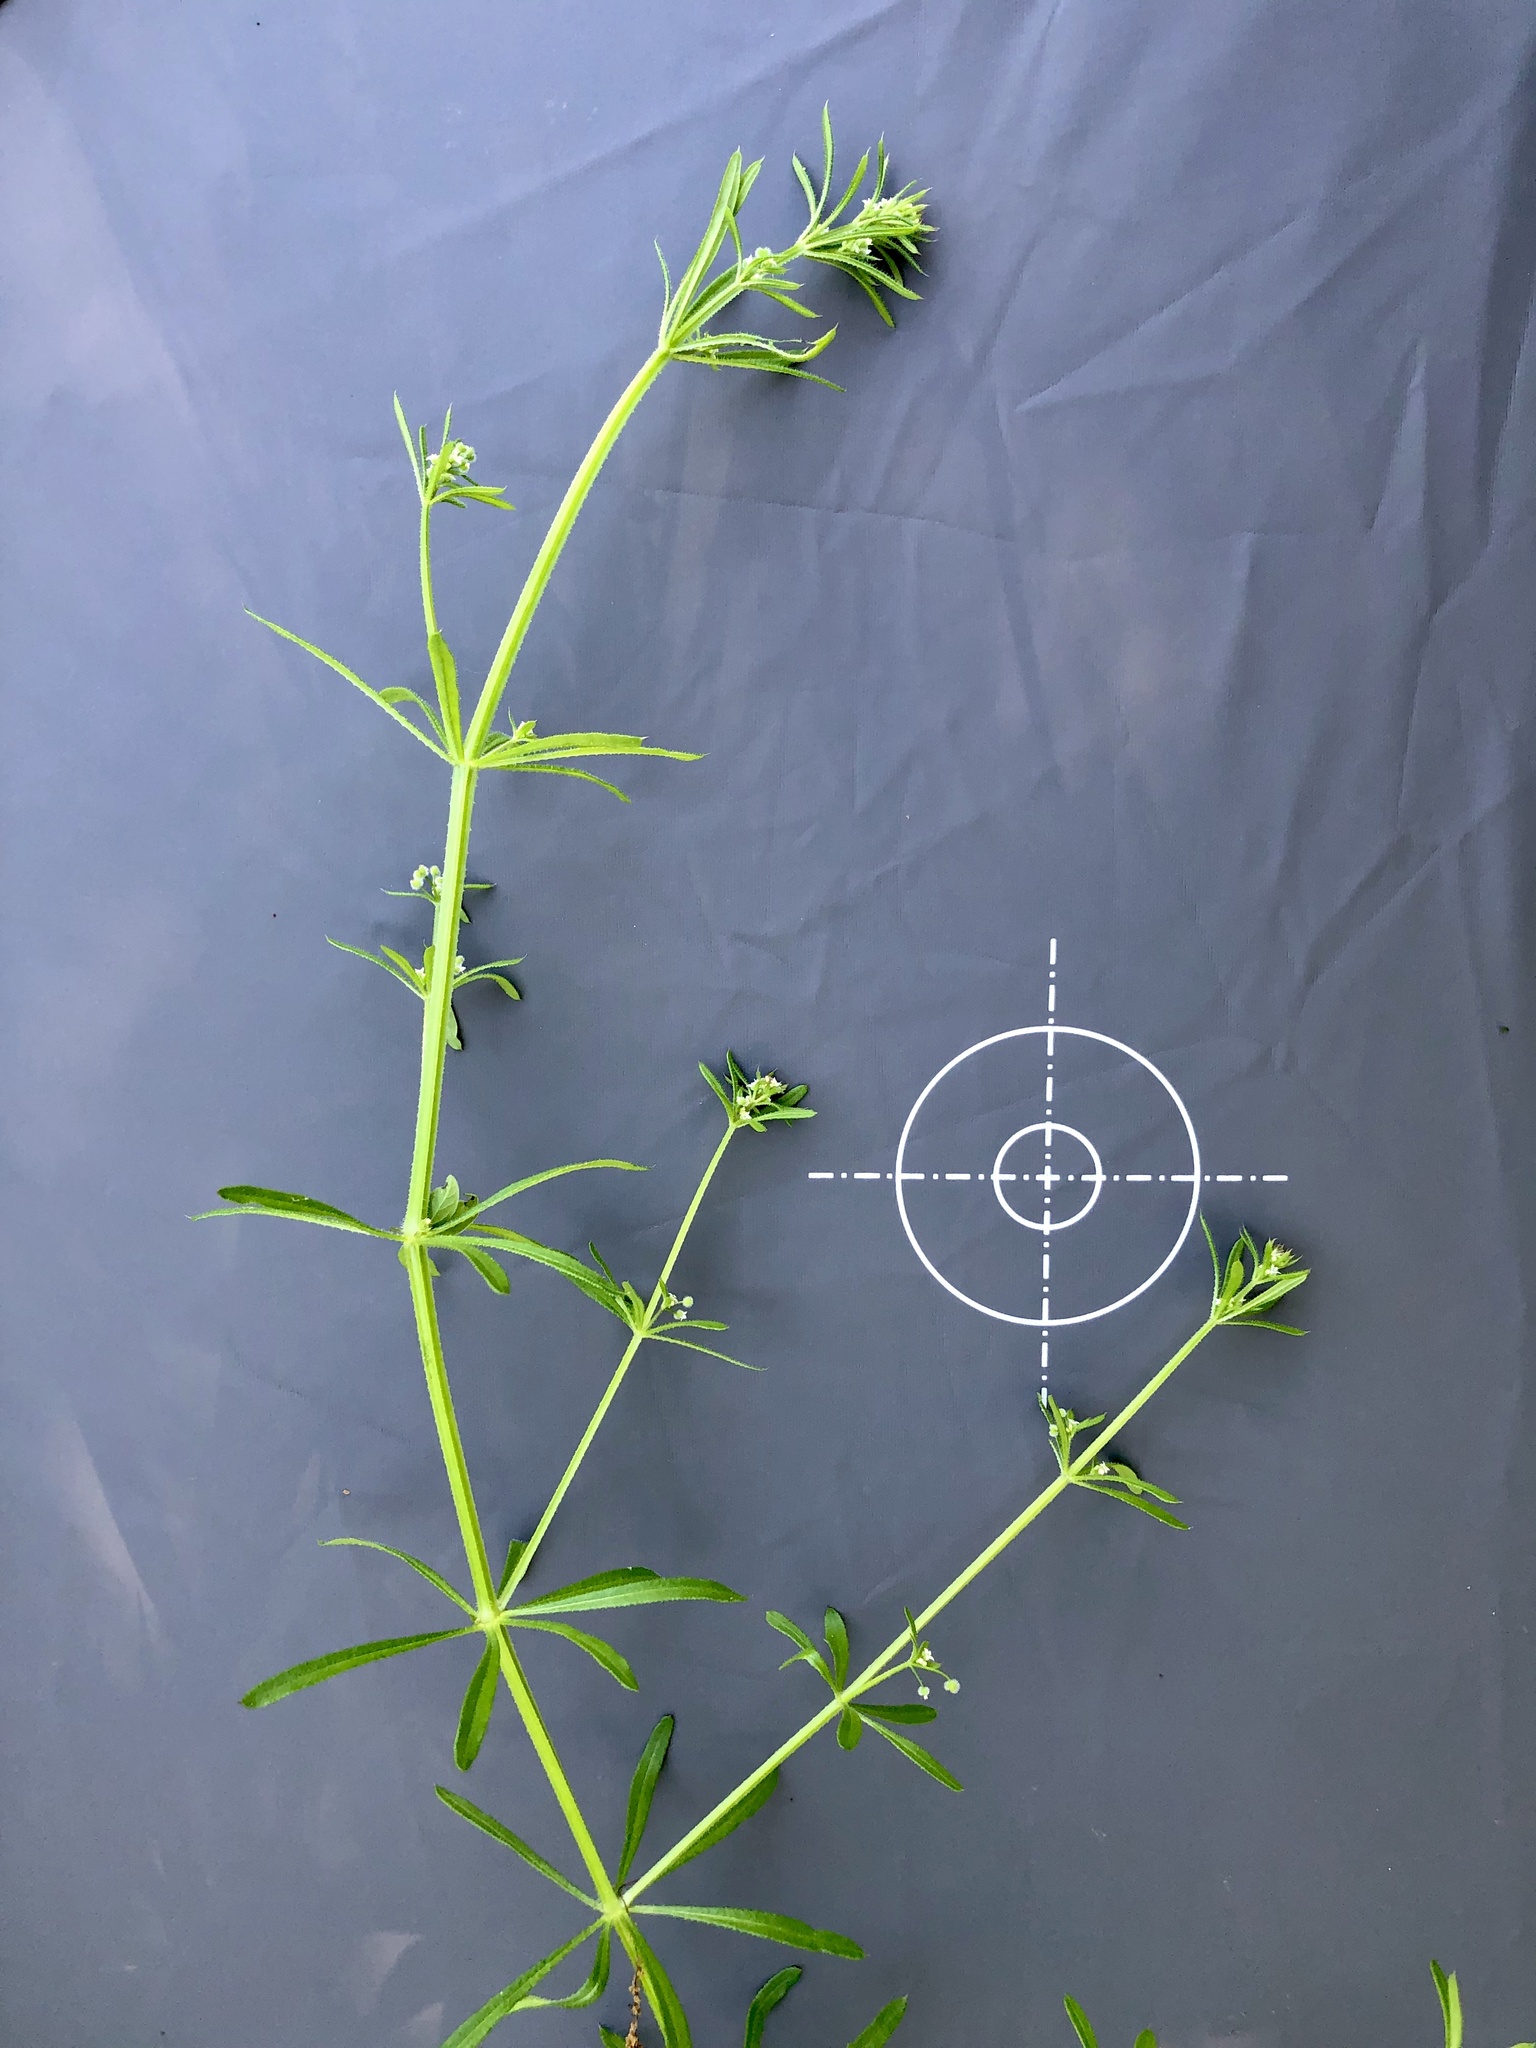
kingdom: Plantae
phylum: Tracheophyta
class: Magnoliopsida
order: Gentianales
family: Rubiaceae
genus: Galium
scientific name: Galium aparine
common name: Cleavers
